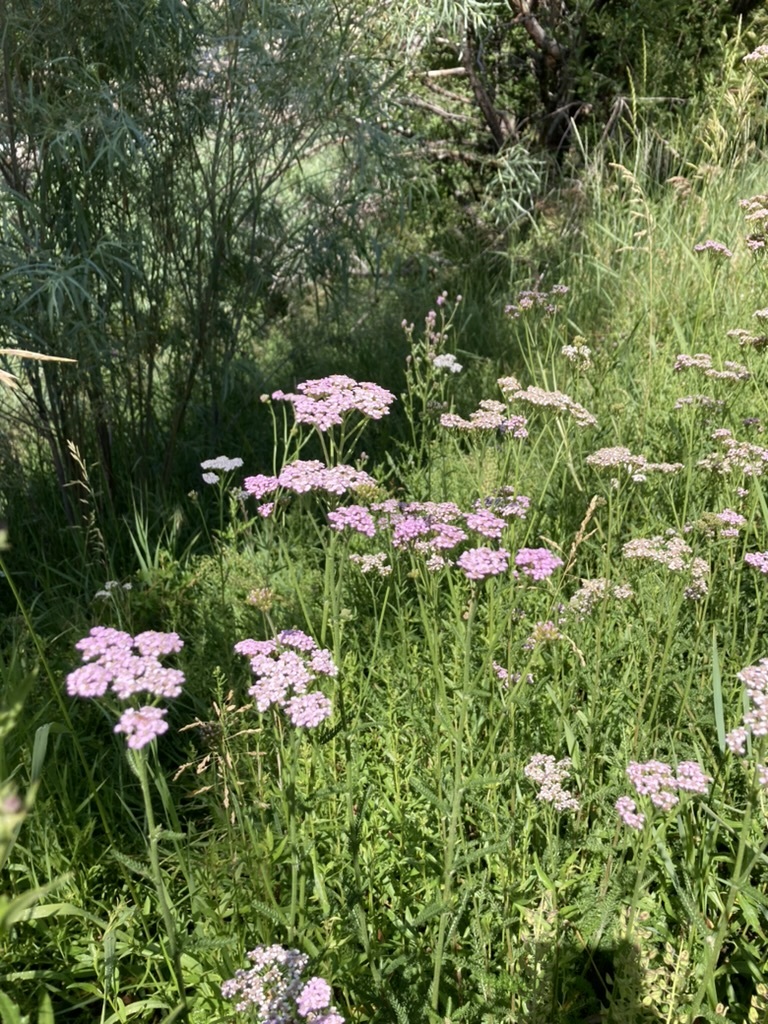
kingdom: Plantae
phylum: Tracheophyta
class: Magnoliopsida
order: Asterales
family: Asteraceae
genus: Achillea
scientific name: Achillea millefolium
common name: Yarrow
